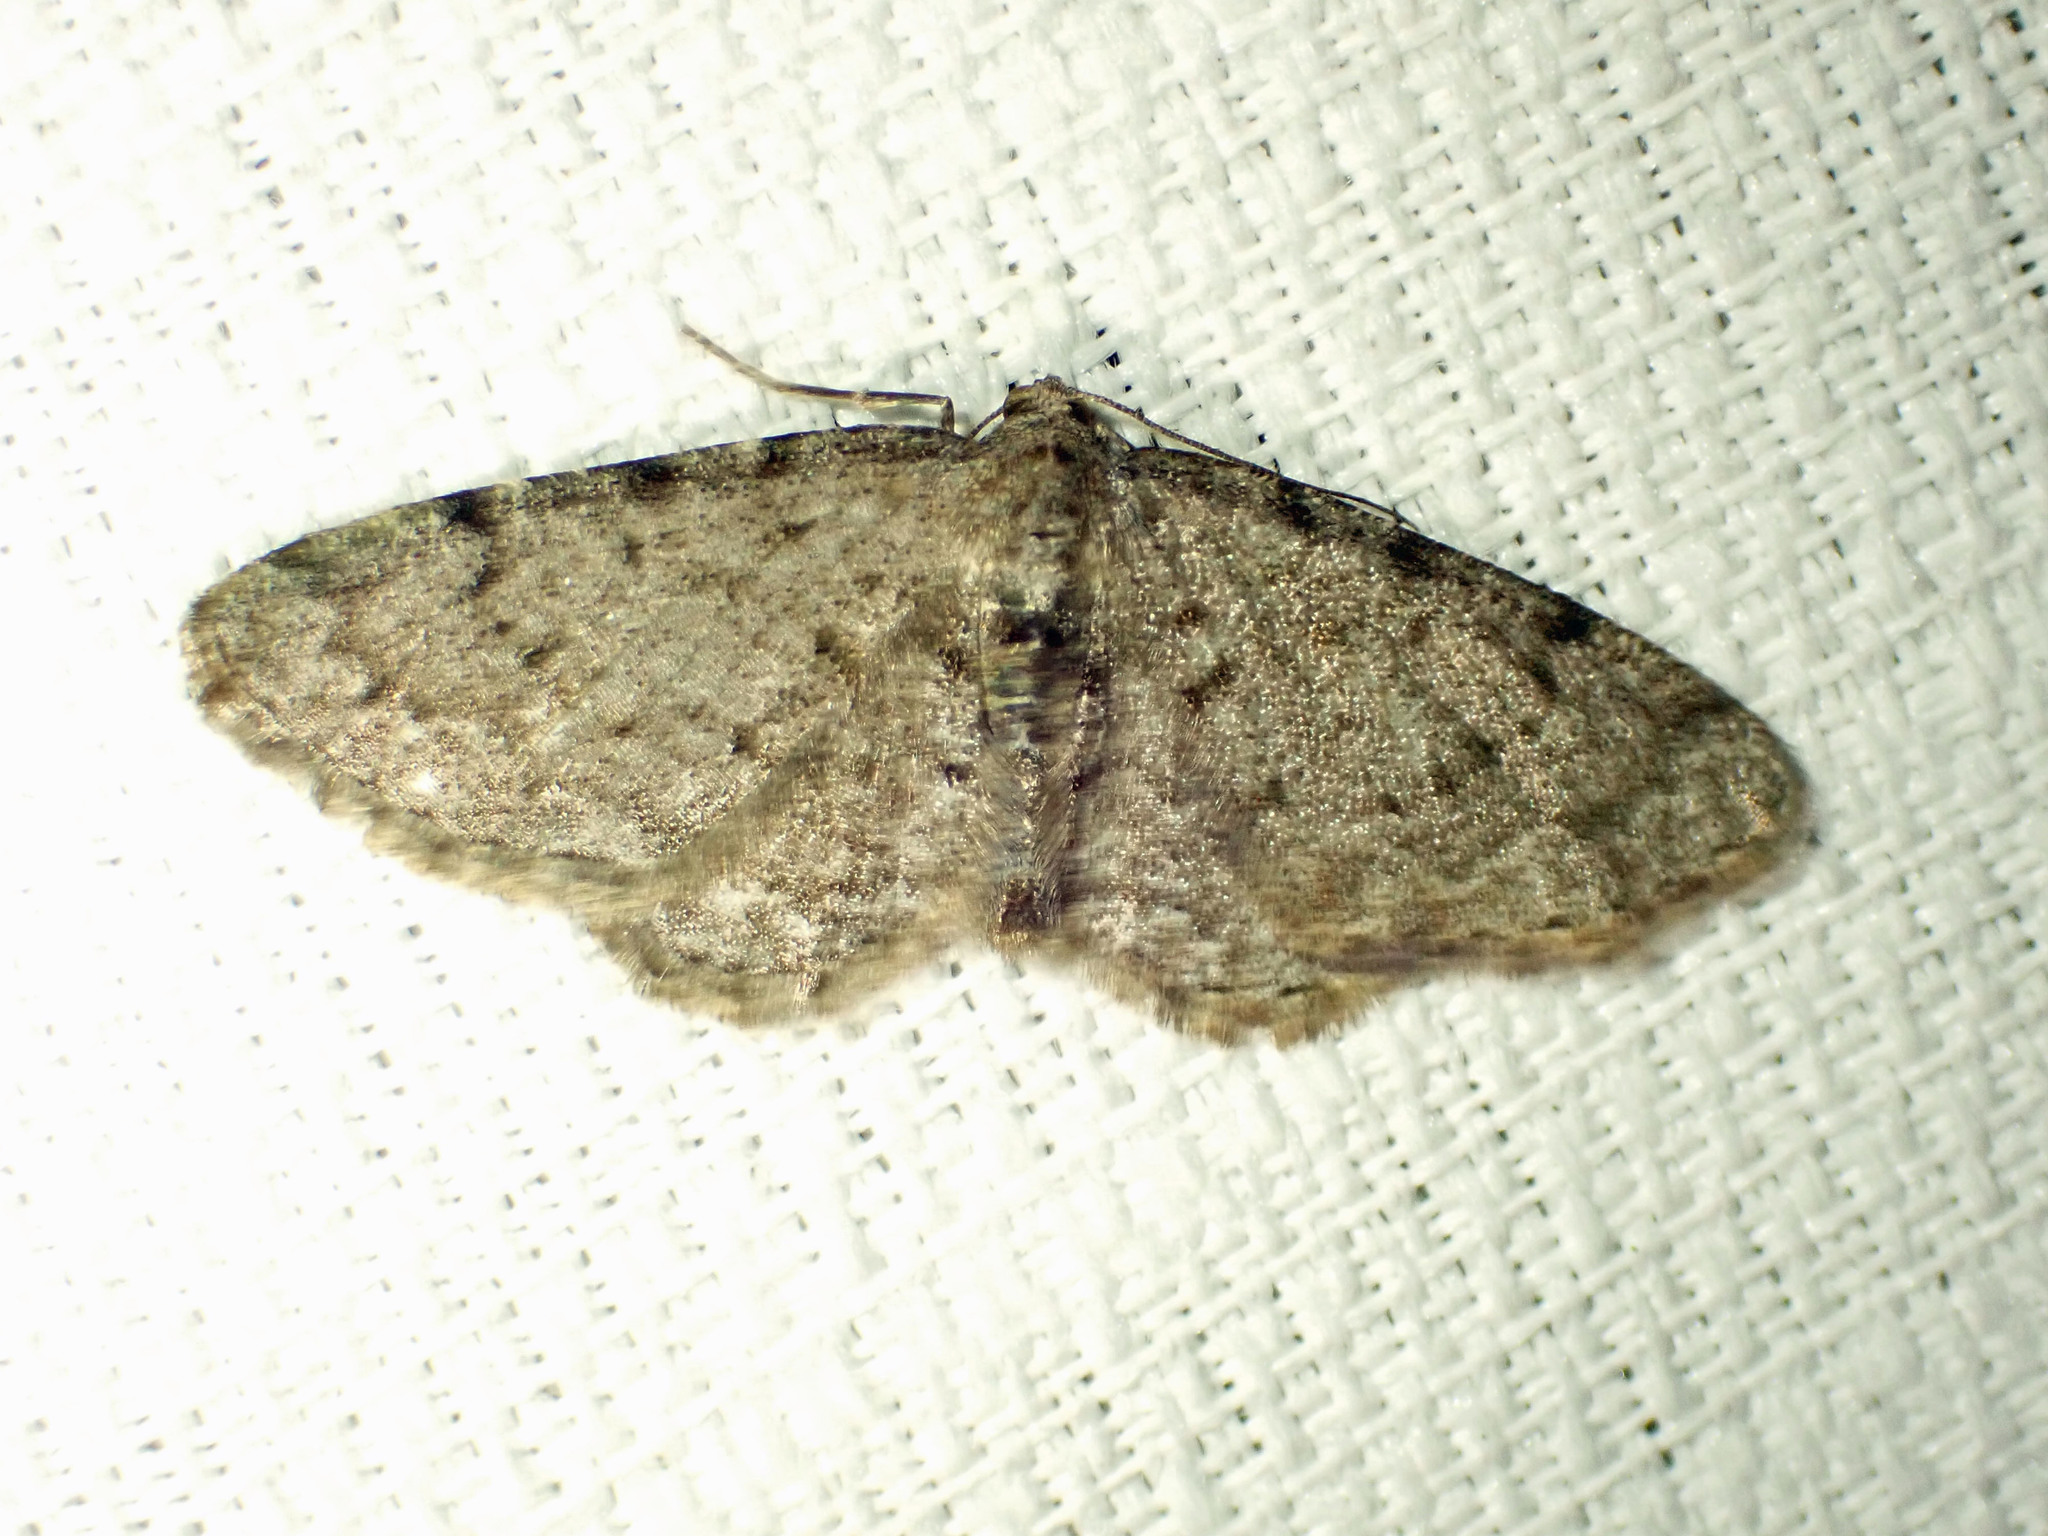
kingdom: Animalia
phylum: Arthropoda
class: Insecta
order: Lepidoptera
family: Geometridae
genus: Aethalura
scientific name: Aethalura intertexta
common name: Four-barred gray
